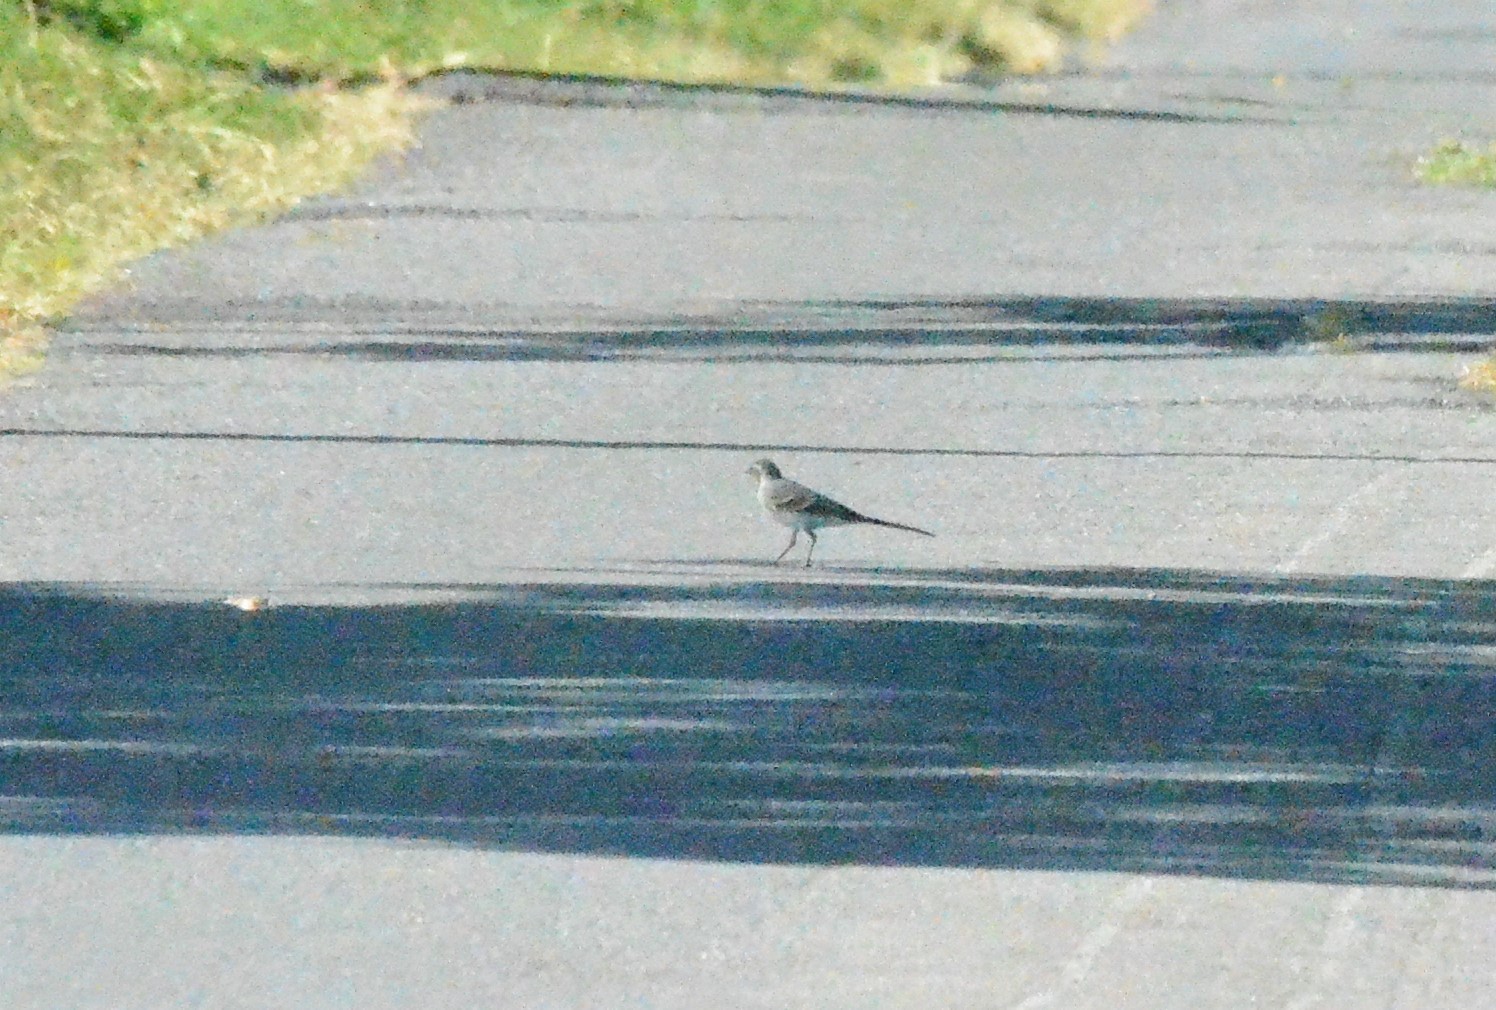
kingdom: Animalia
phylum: Chordata
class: Aves
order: Passeriformes
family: Motacillidae
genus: Motacilla
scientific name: Motacilla alba
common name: White wagtail
